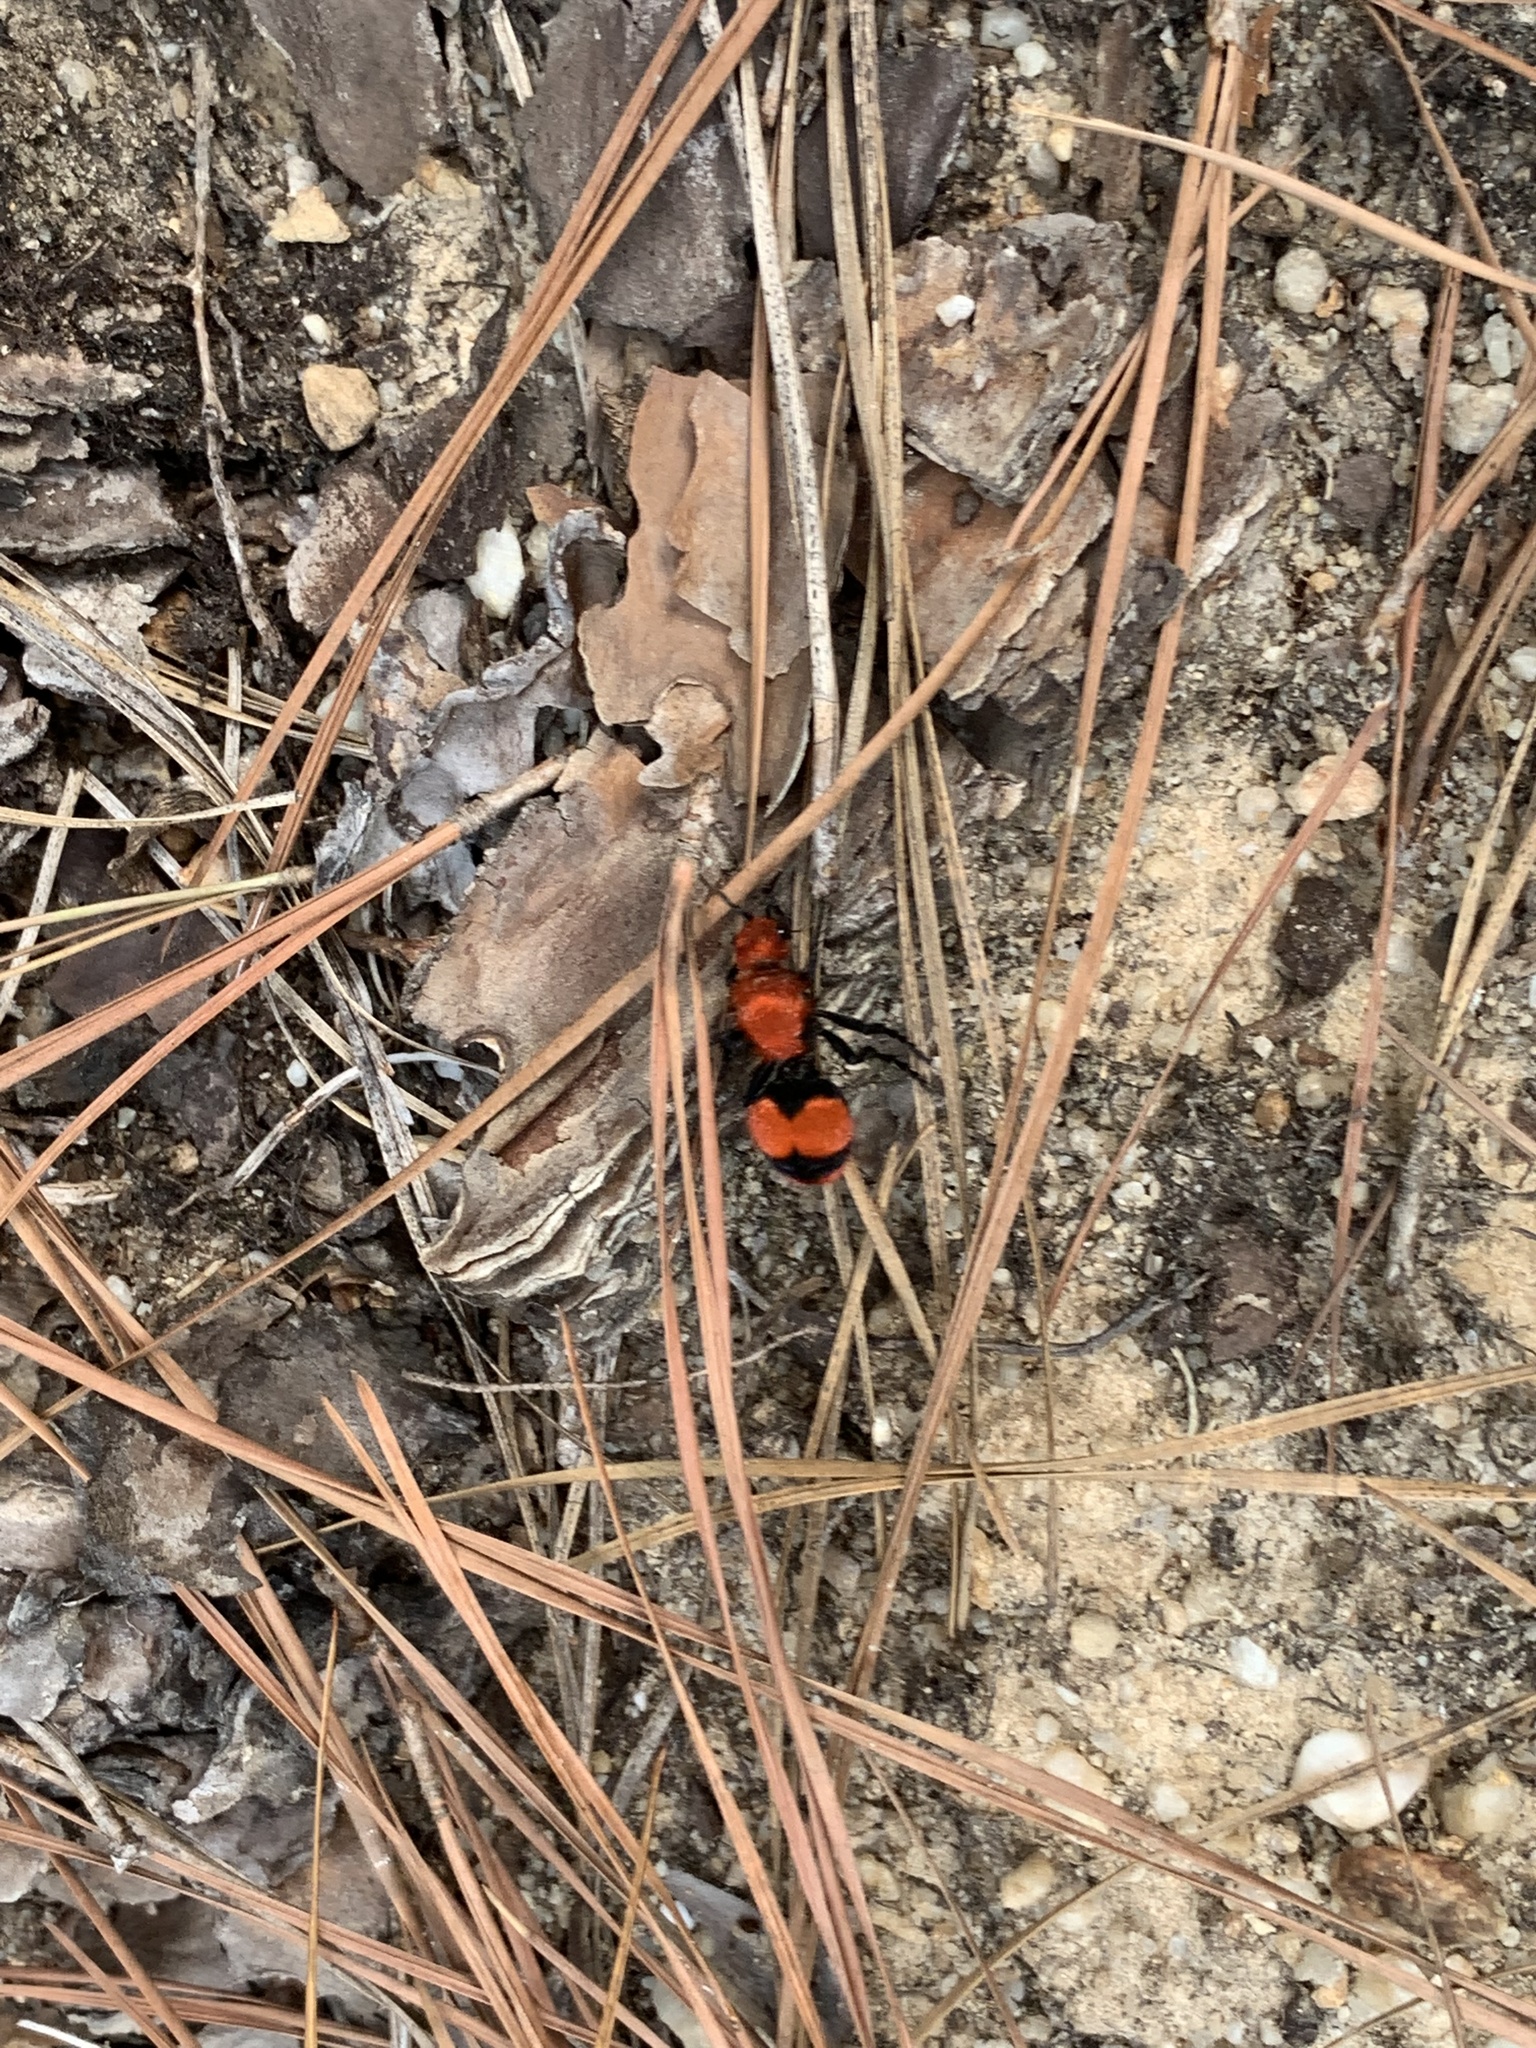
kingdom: Animalia
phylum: Arthropoda
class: Insecta
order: Hymenoptera
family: Mutillidae
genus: Dasymutilla
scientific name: Dasymutilla occidentalis
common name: Common eastern velvet ant
